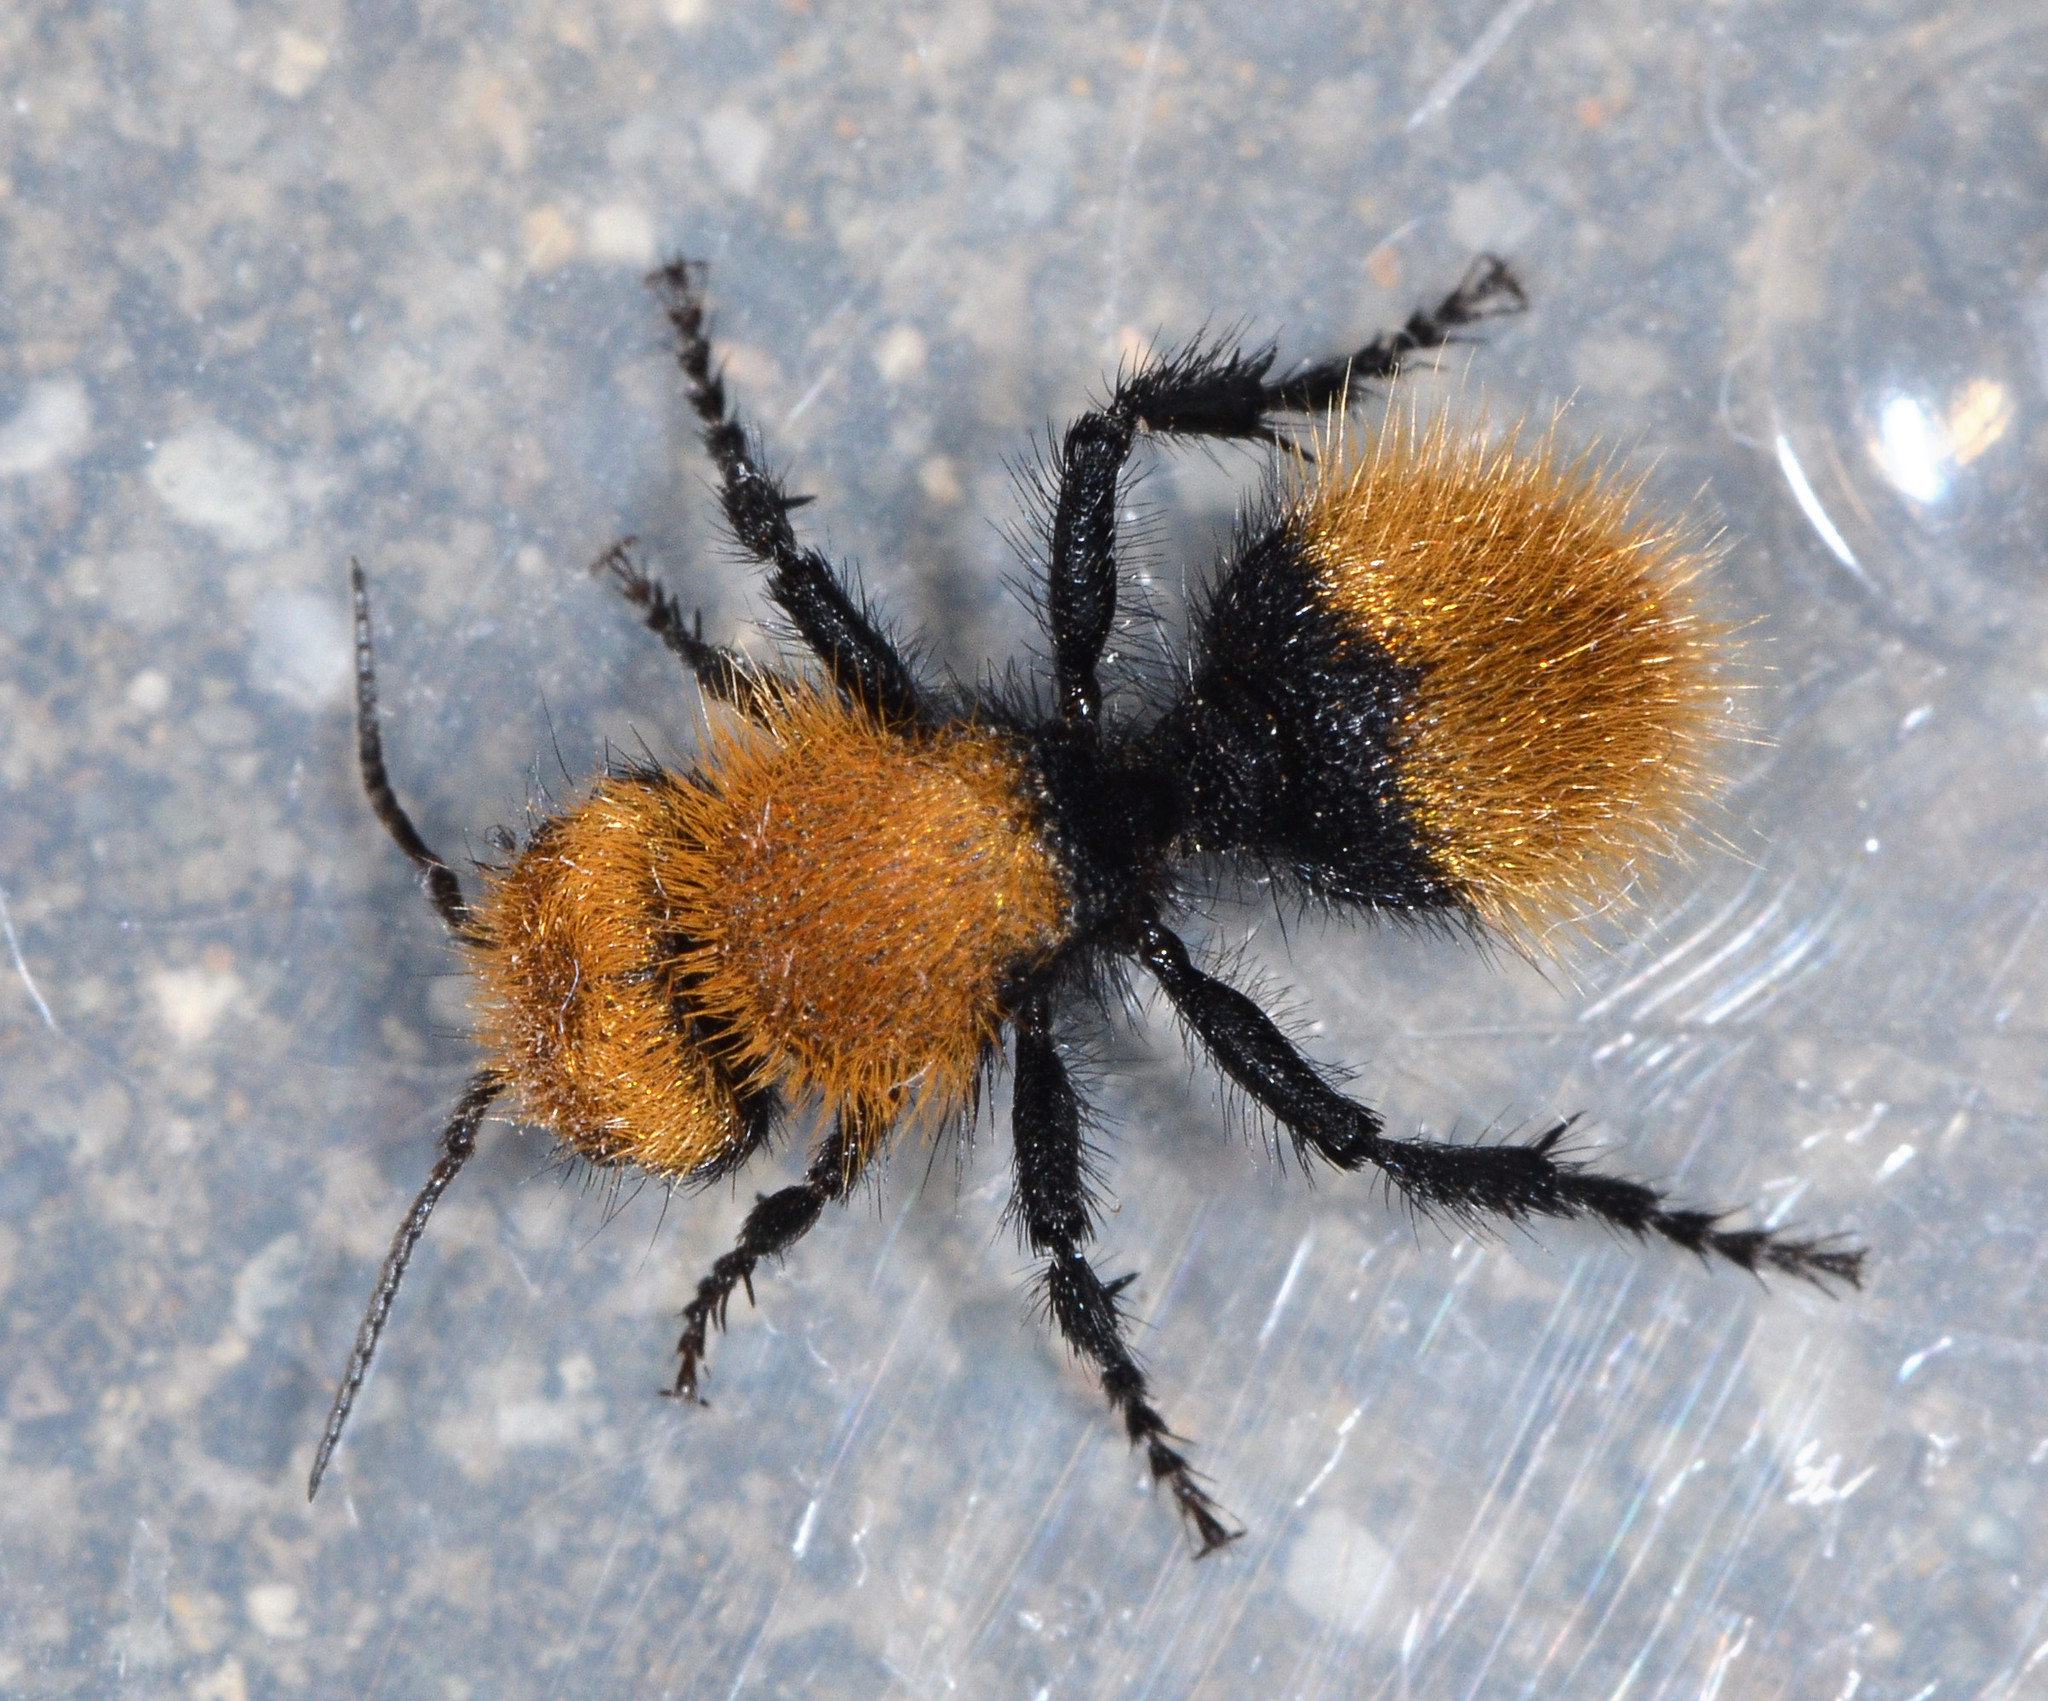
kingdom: Animalia
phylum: Arthropoda
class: Insecta
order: Hymenoptera
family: Mutillidae
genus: Dasymutilla
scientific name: Dasymutilla
